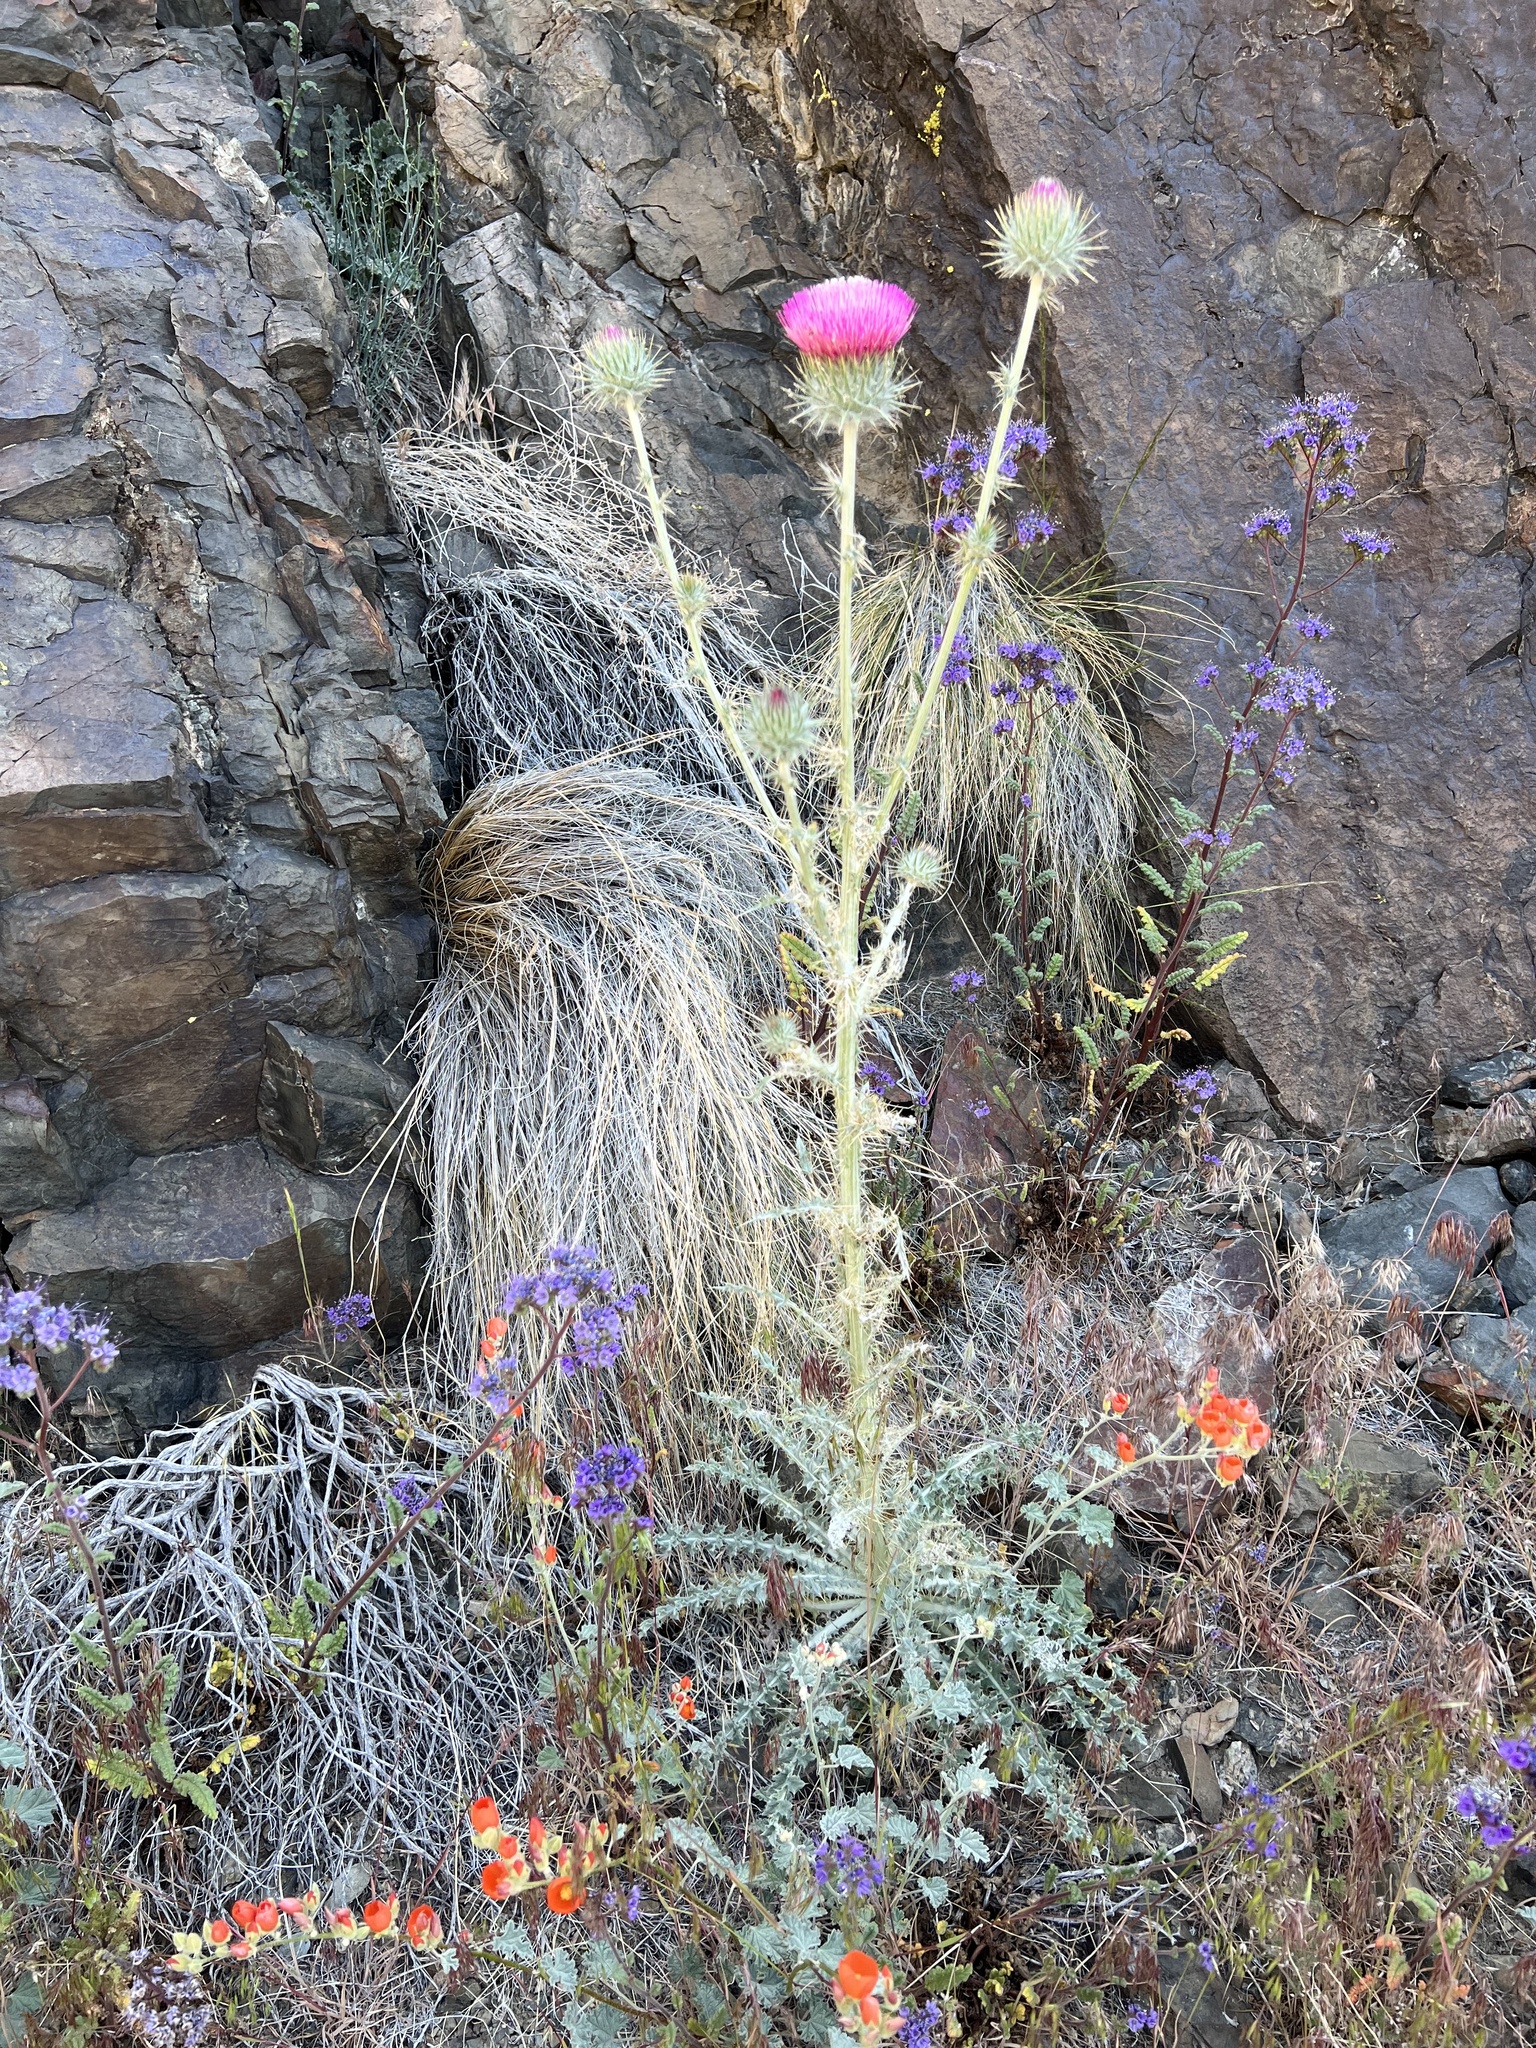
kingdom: Plantae
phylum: Tracheophyta
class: Magnoliopsida
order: Asterales
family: Asteraceae
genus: Cirsium
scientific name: Cirsium occidentale
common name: Western thistle
